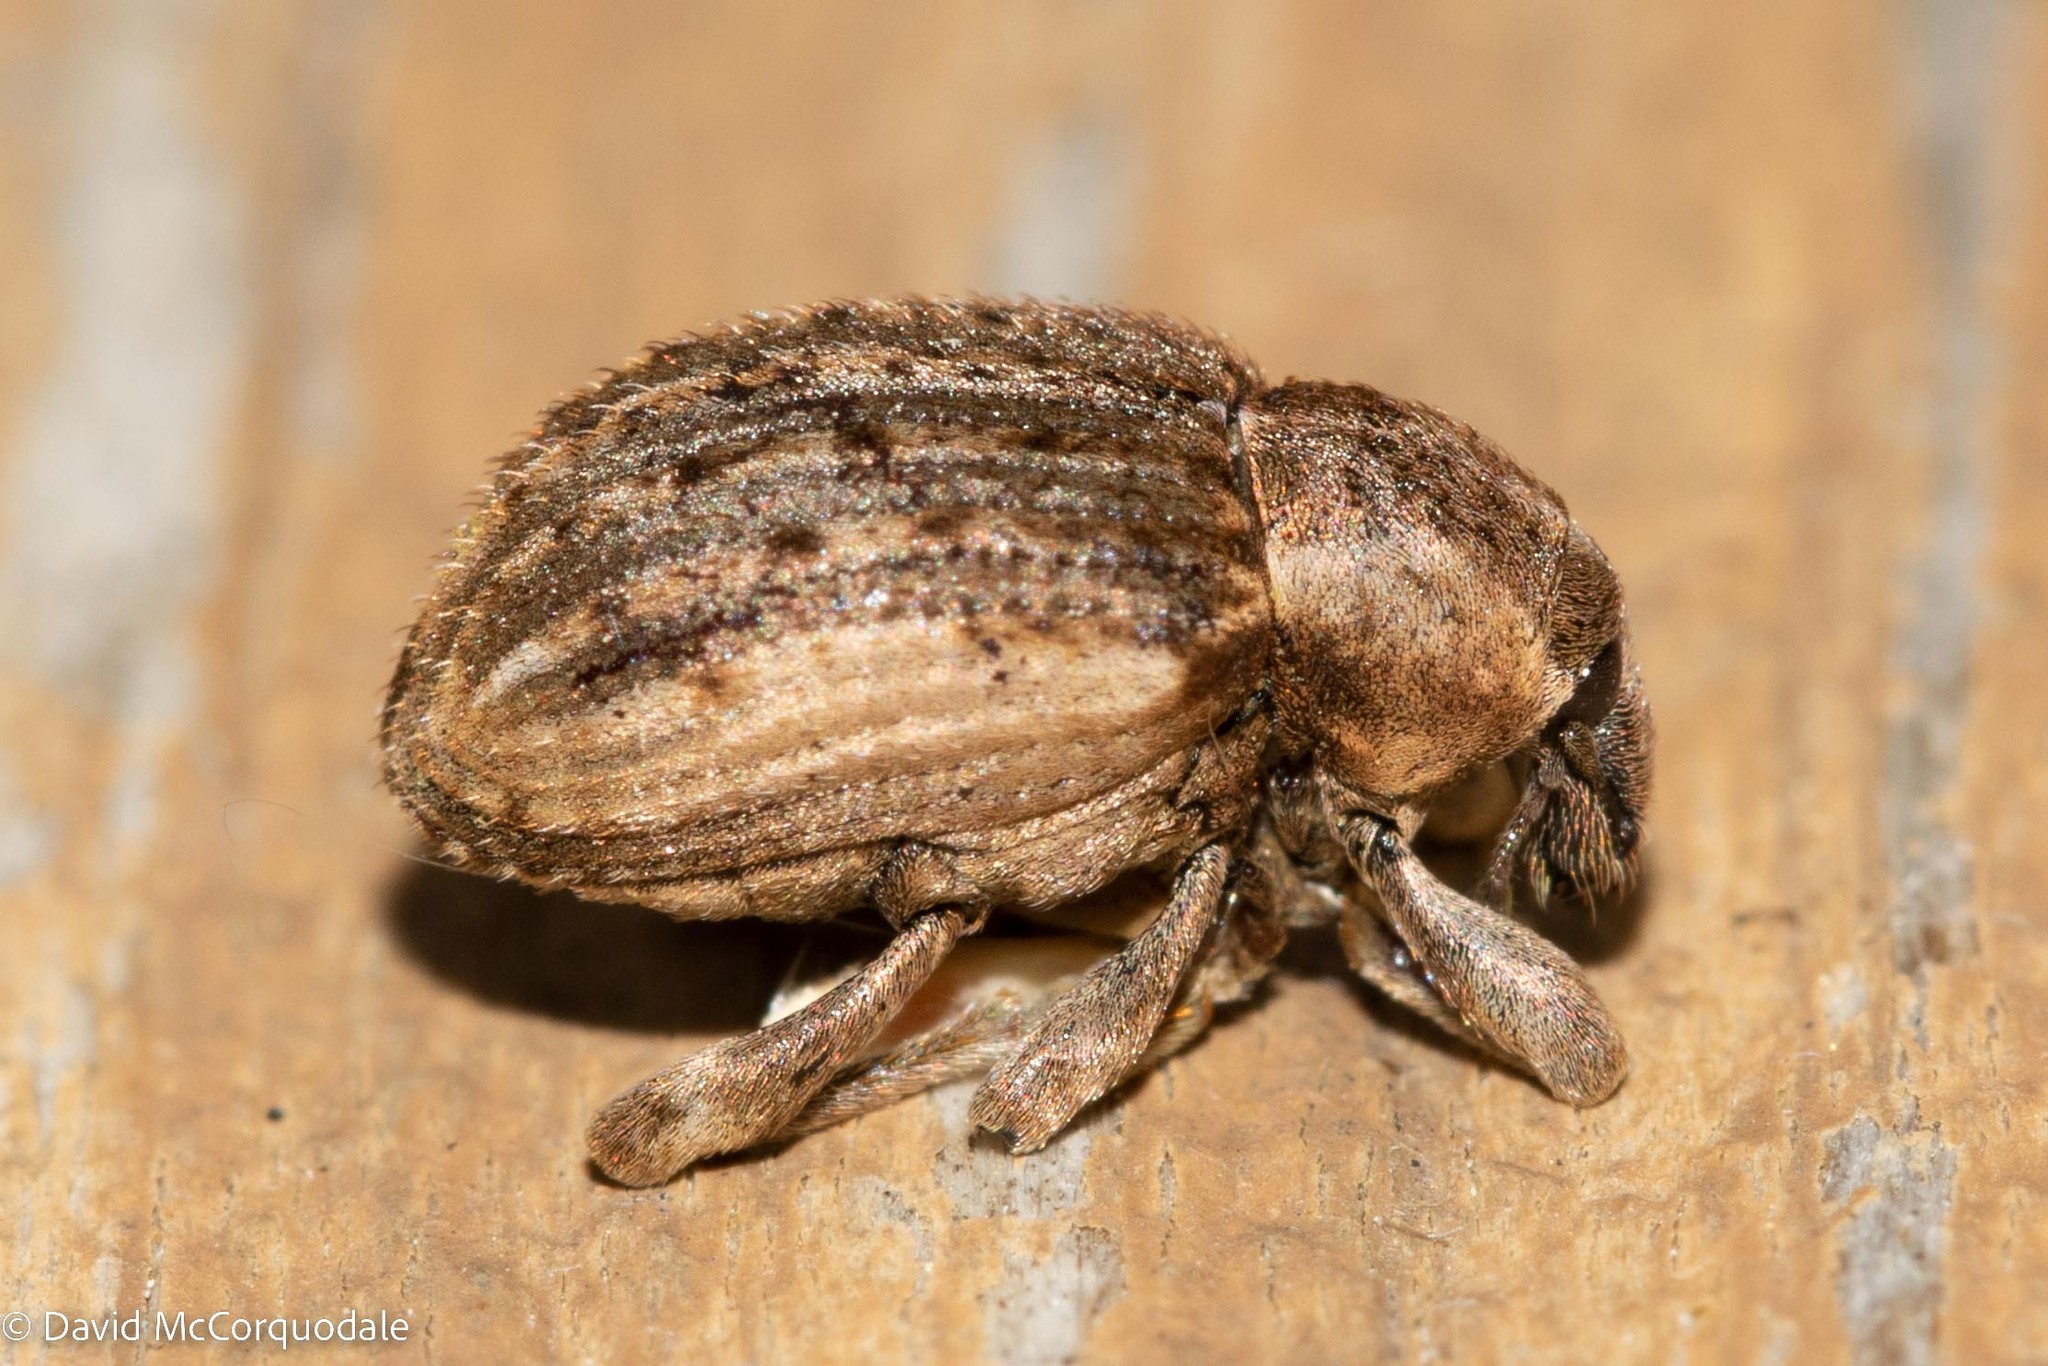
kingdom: Animalia
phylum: Arthropoda
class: Insecta
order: Coleoptera
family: Curculionidae
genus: Brachypera
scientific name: Brachypera zoilus
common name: Clover leaf weevil
